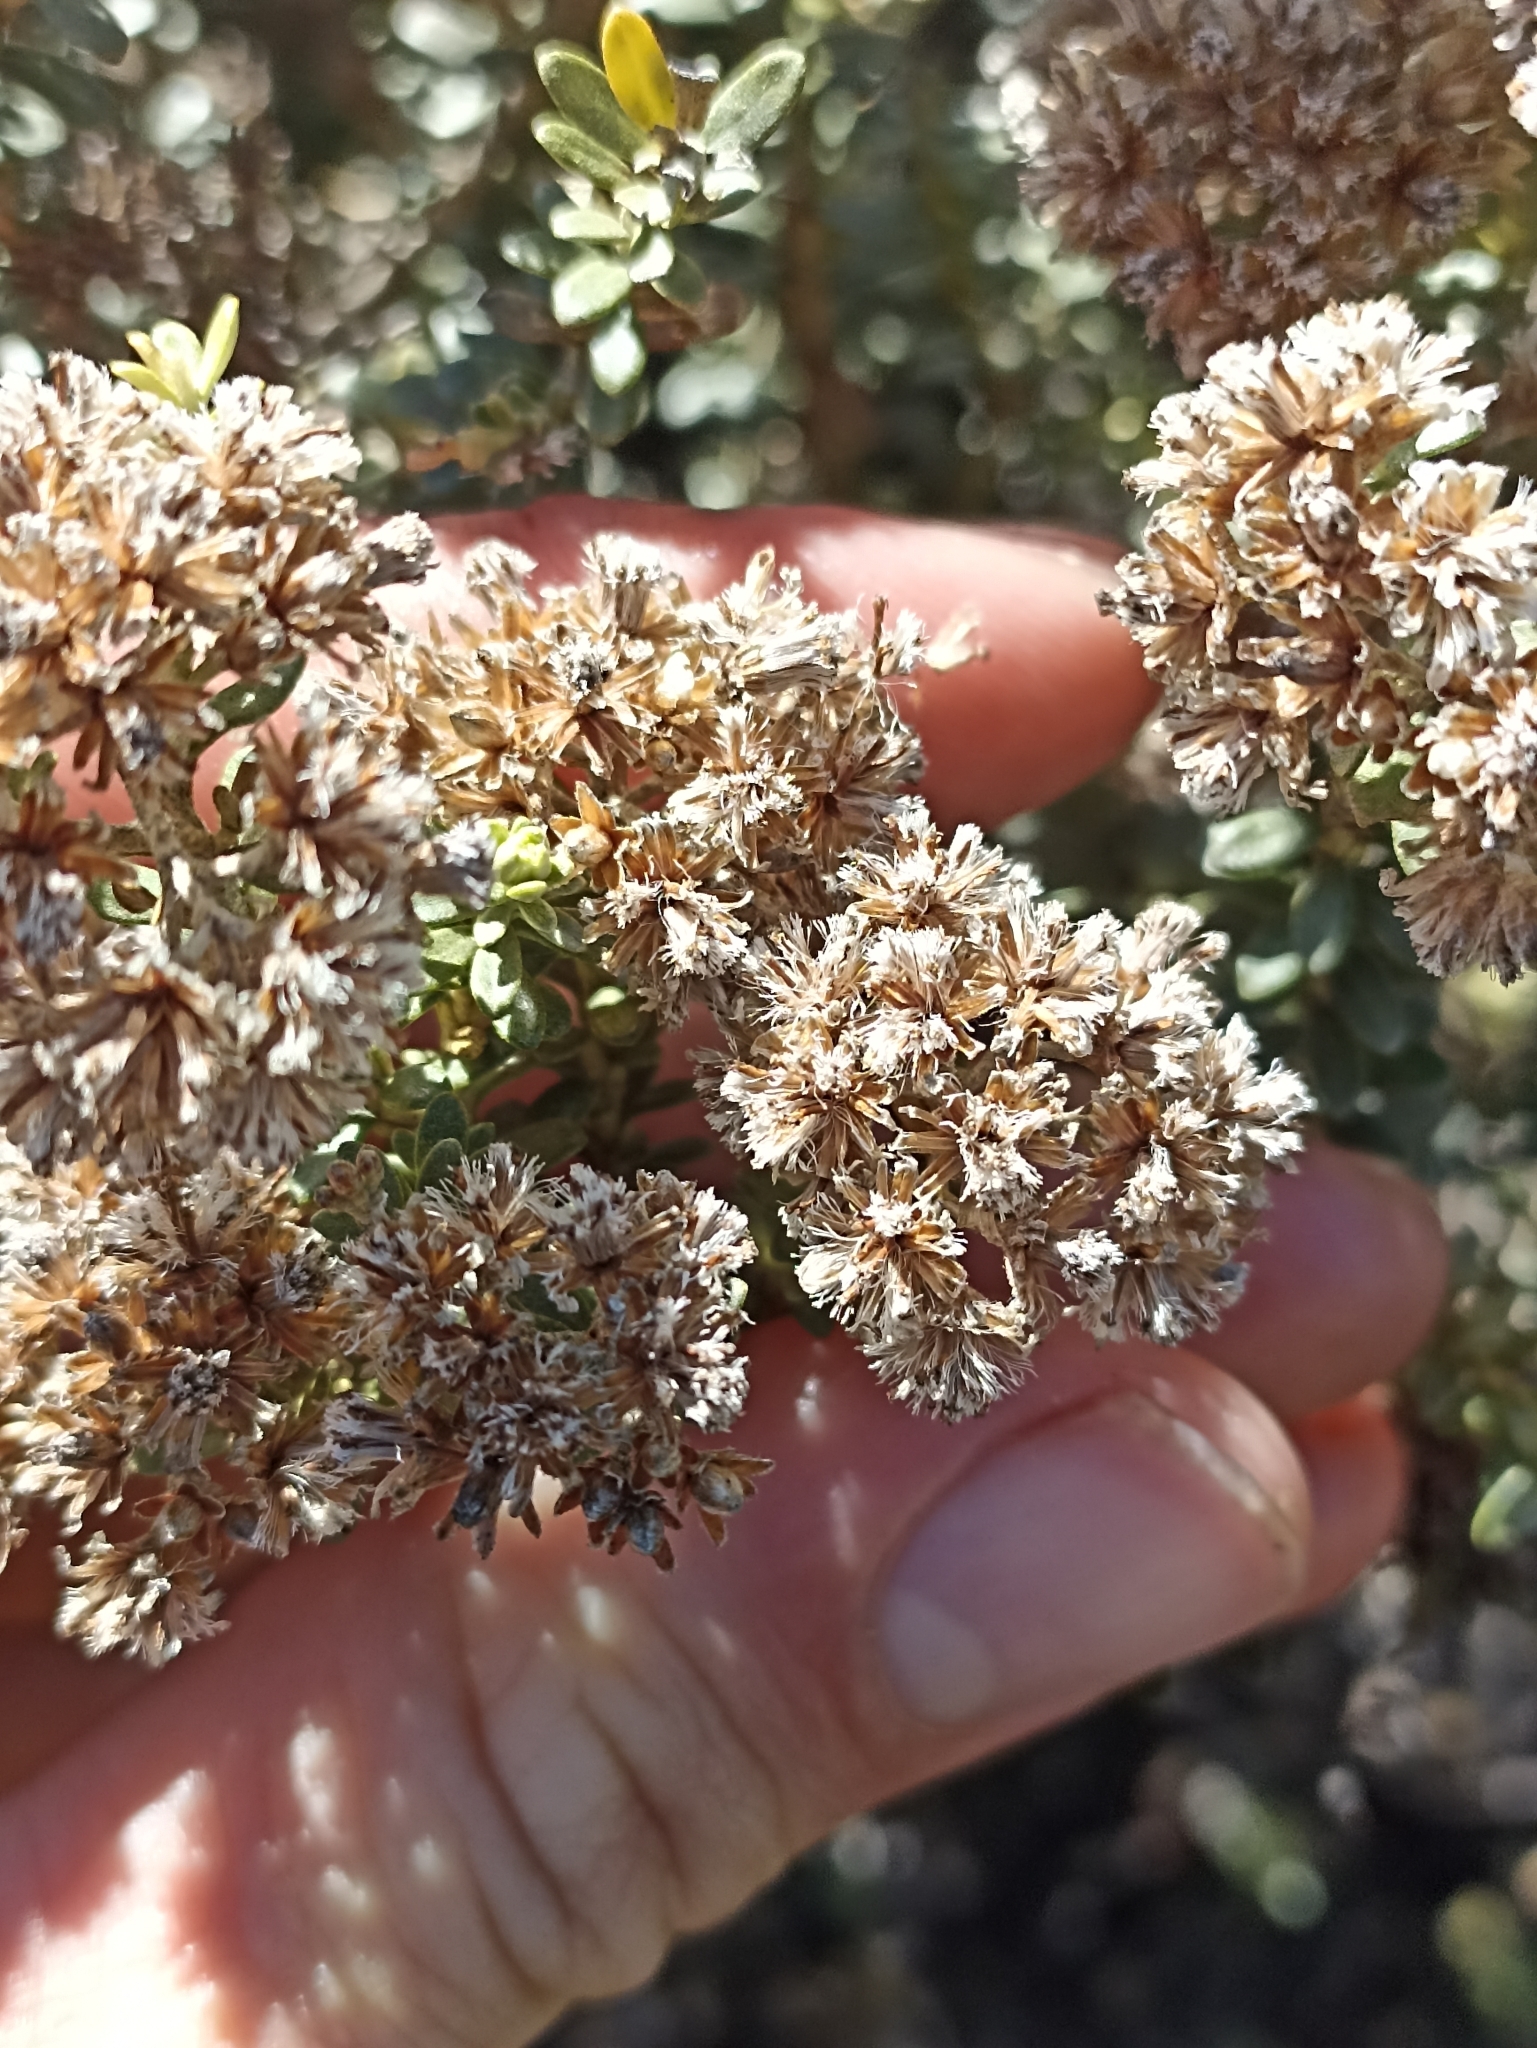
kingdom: Plantae
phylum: Tracheophyta
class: Magnoliopsida
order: Asterales
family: Asteraceae
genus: Ozothamnus
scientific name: Ozothamnus leptophyllus
